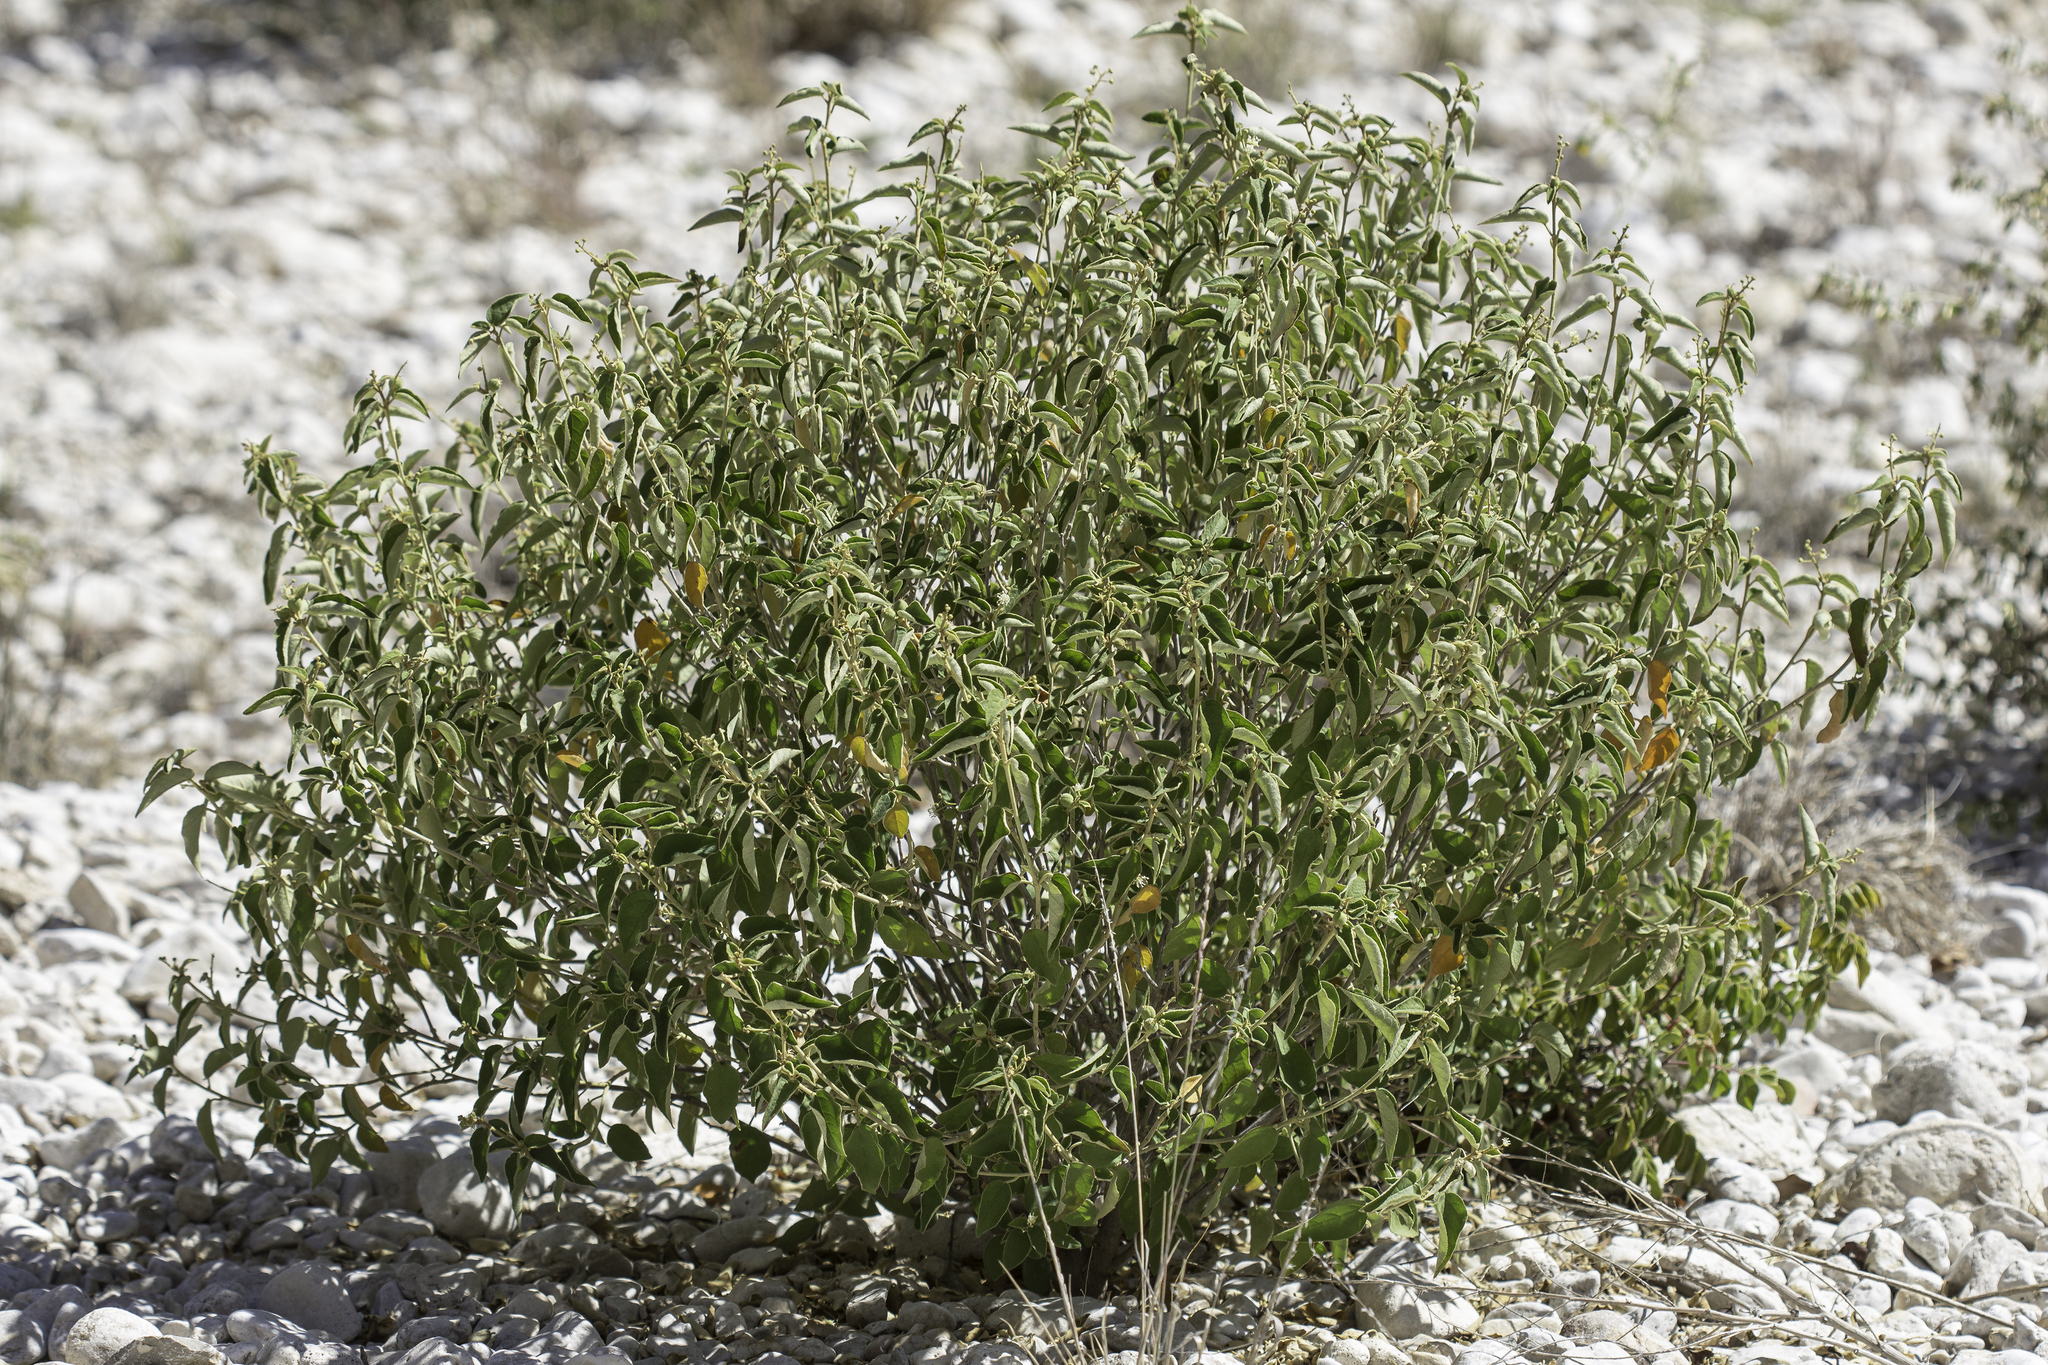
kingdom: Plantae
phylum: Tracheophyta
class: Magnoliopsida
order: Malpighiales
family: Euphorbiaceae
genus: Croton
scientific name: Croton fruticulosus
